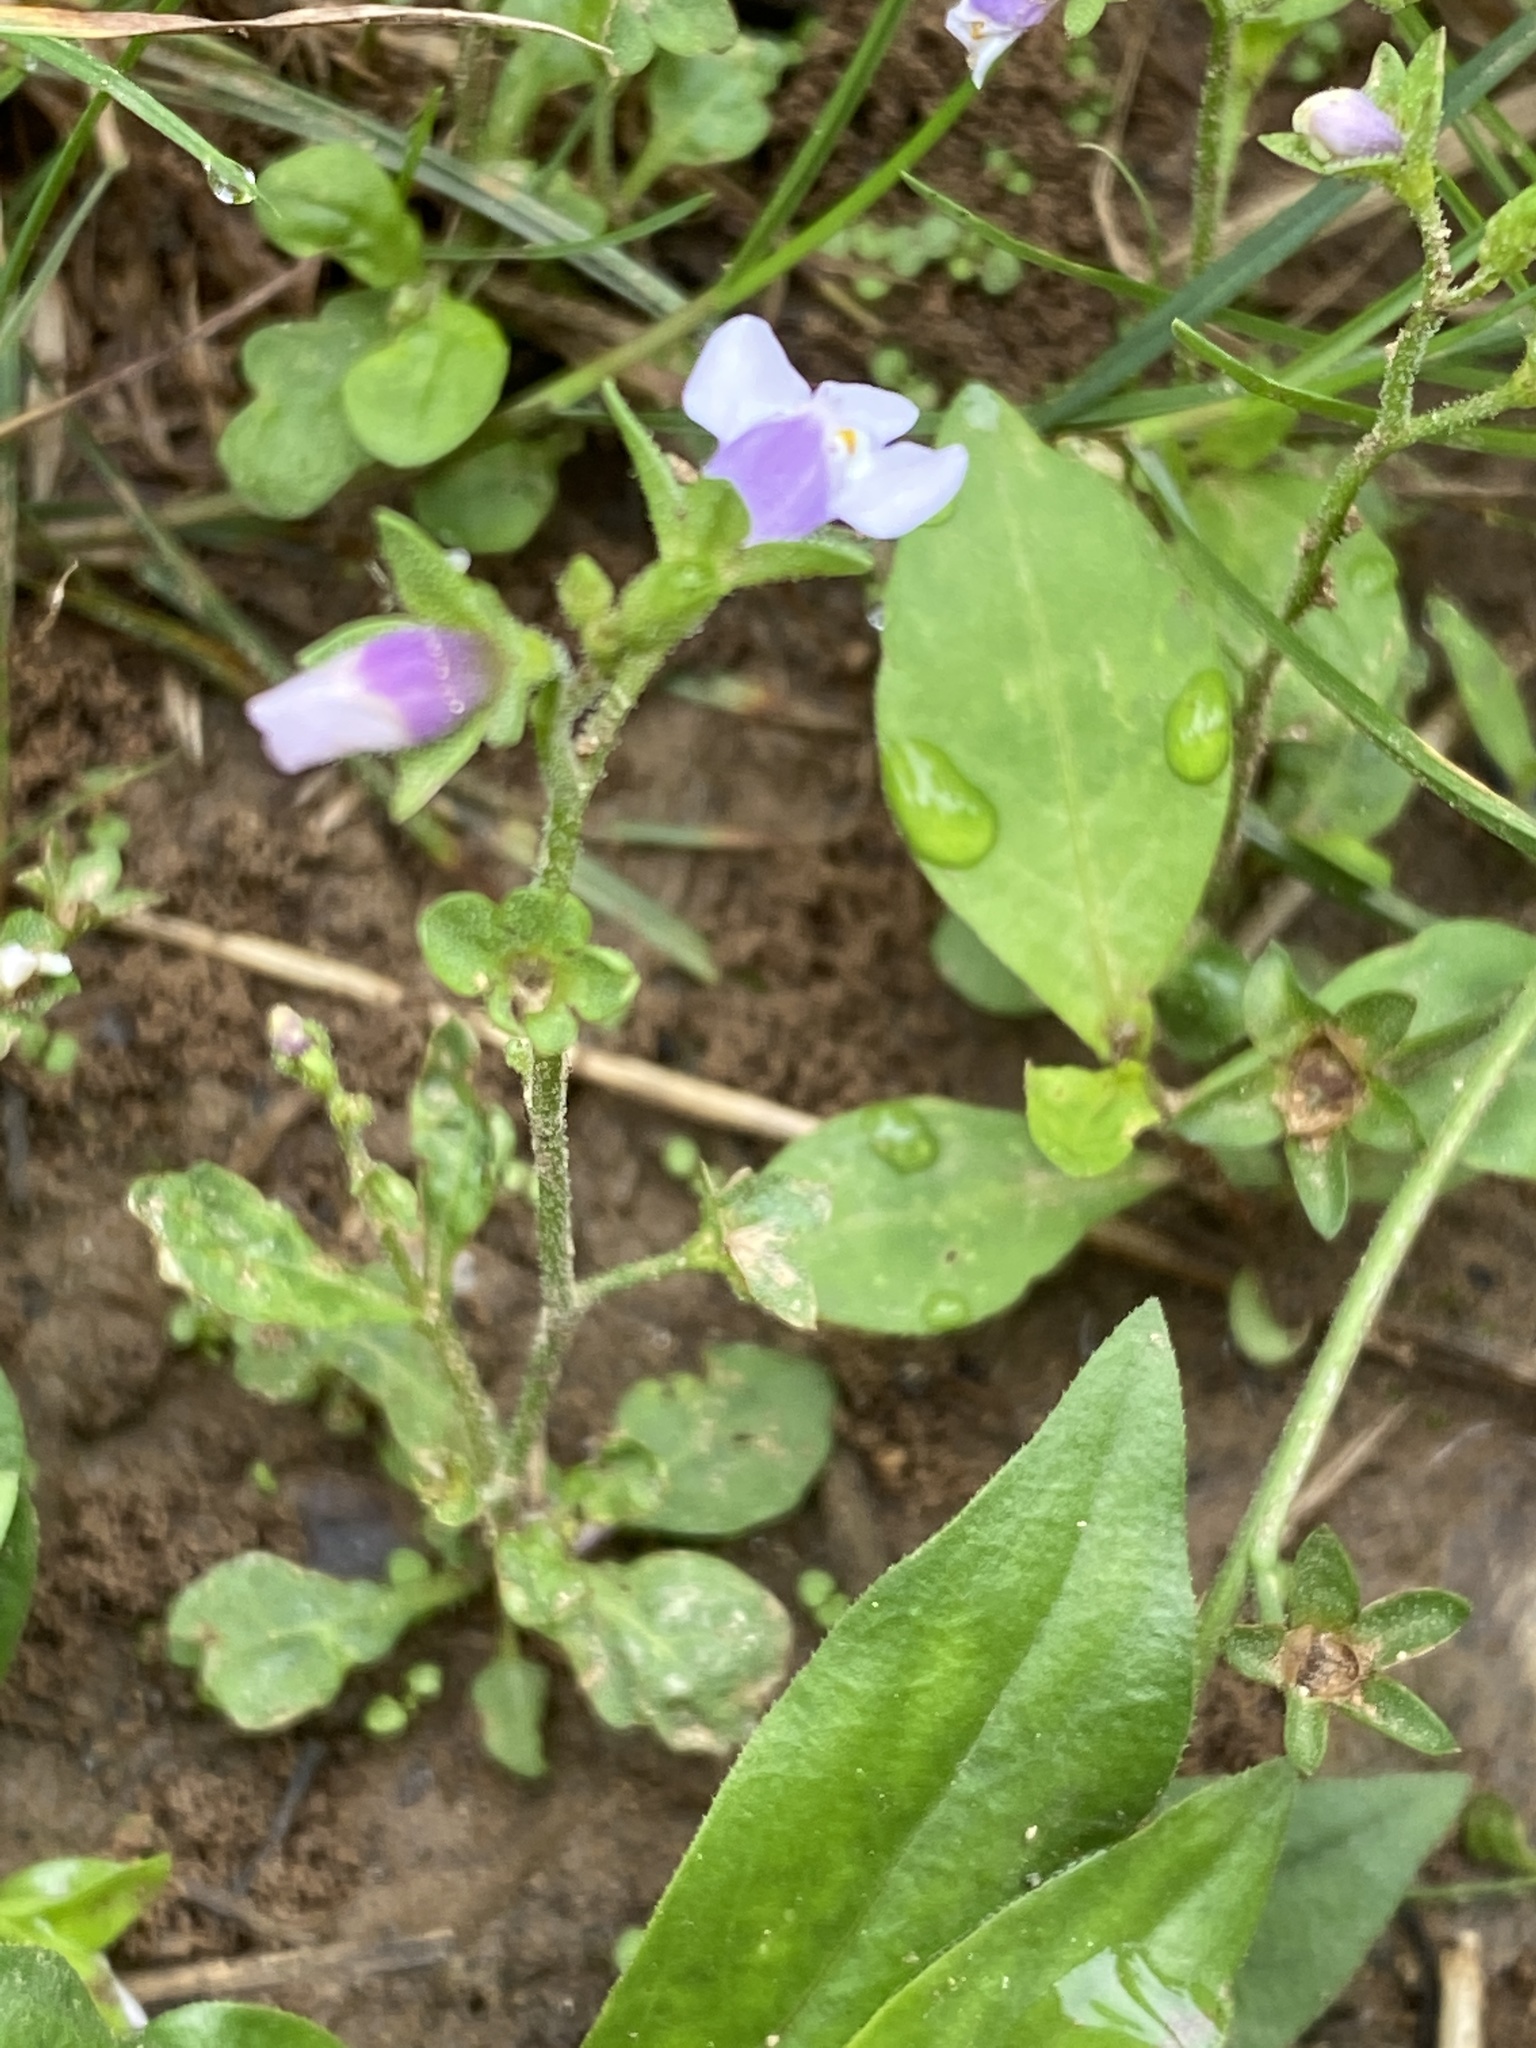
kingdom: Plantae
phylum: Tracheophyta
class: Magnoliopsida
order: Lamiales
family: Mazaceae
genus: Mazus
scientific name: Mazus pumilus
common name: Japanese mazus
